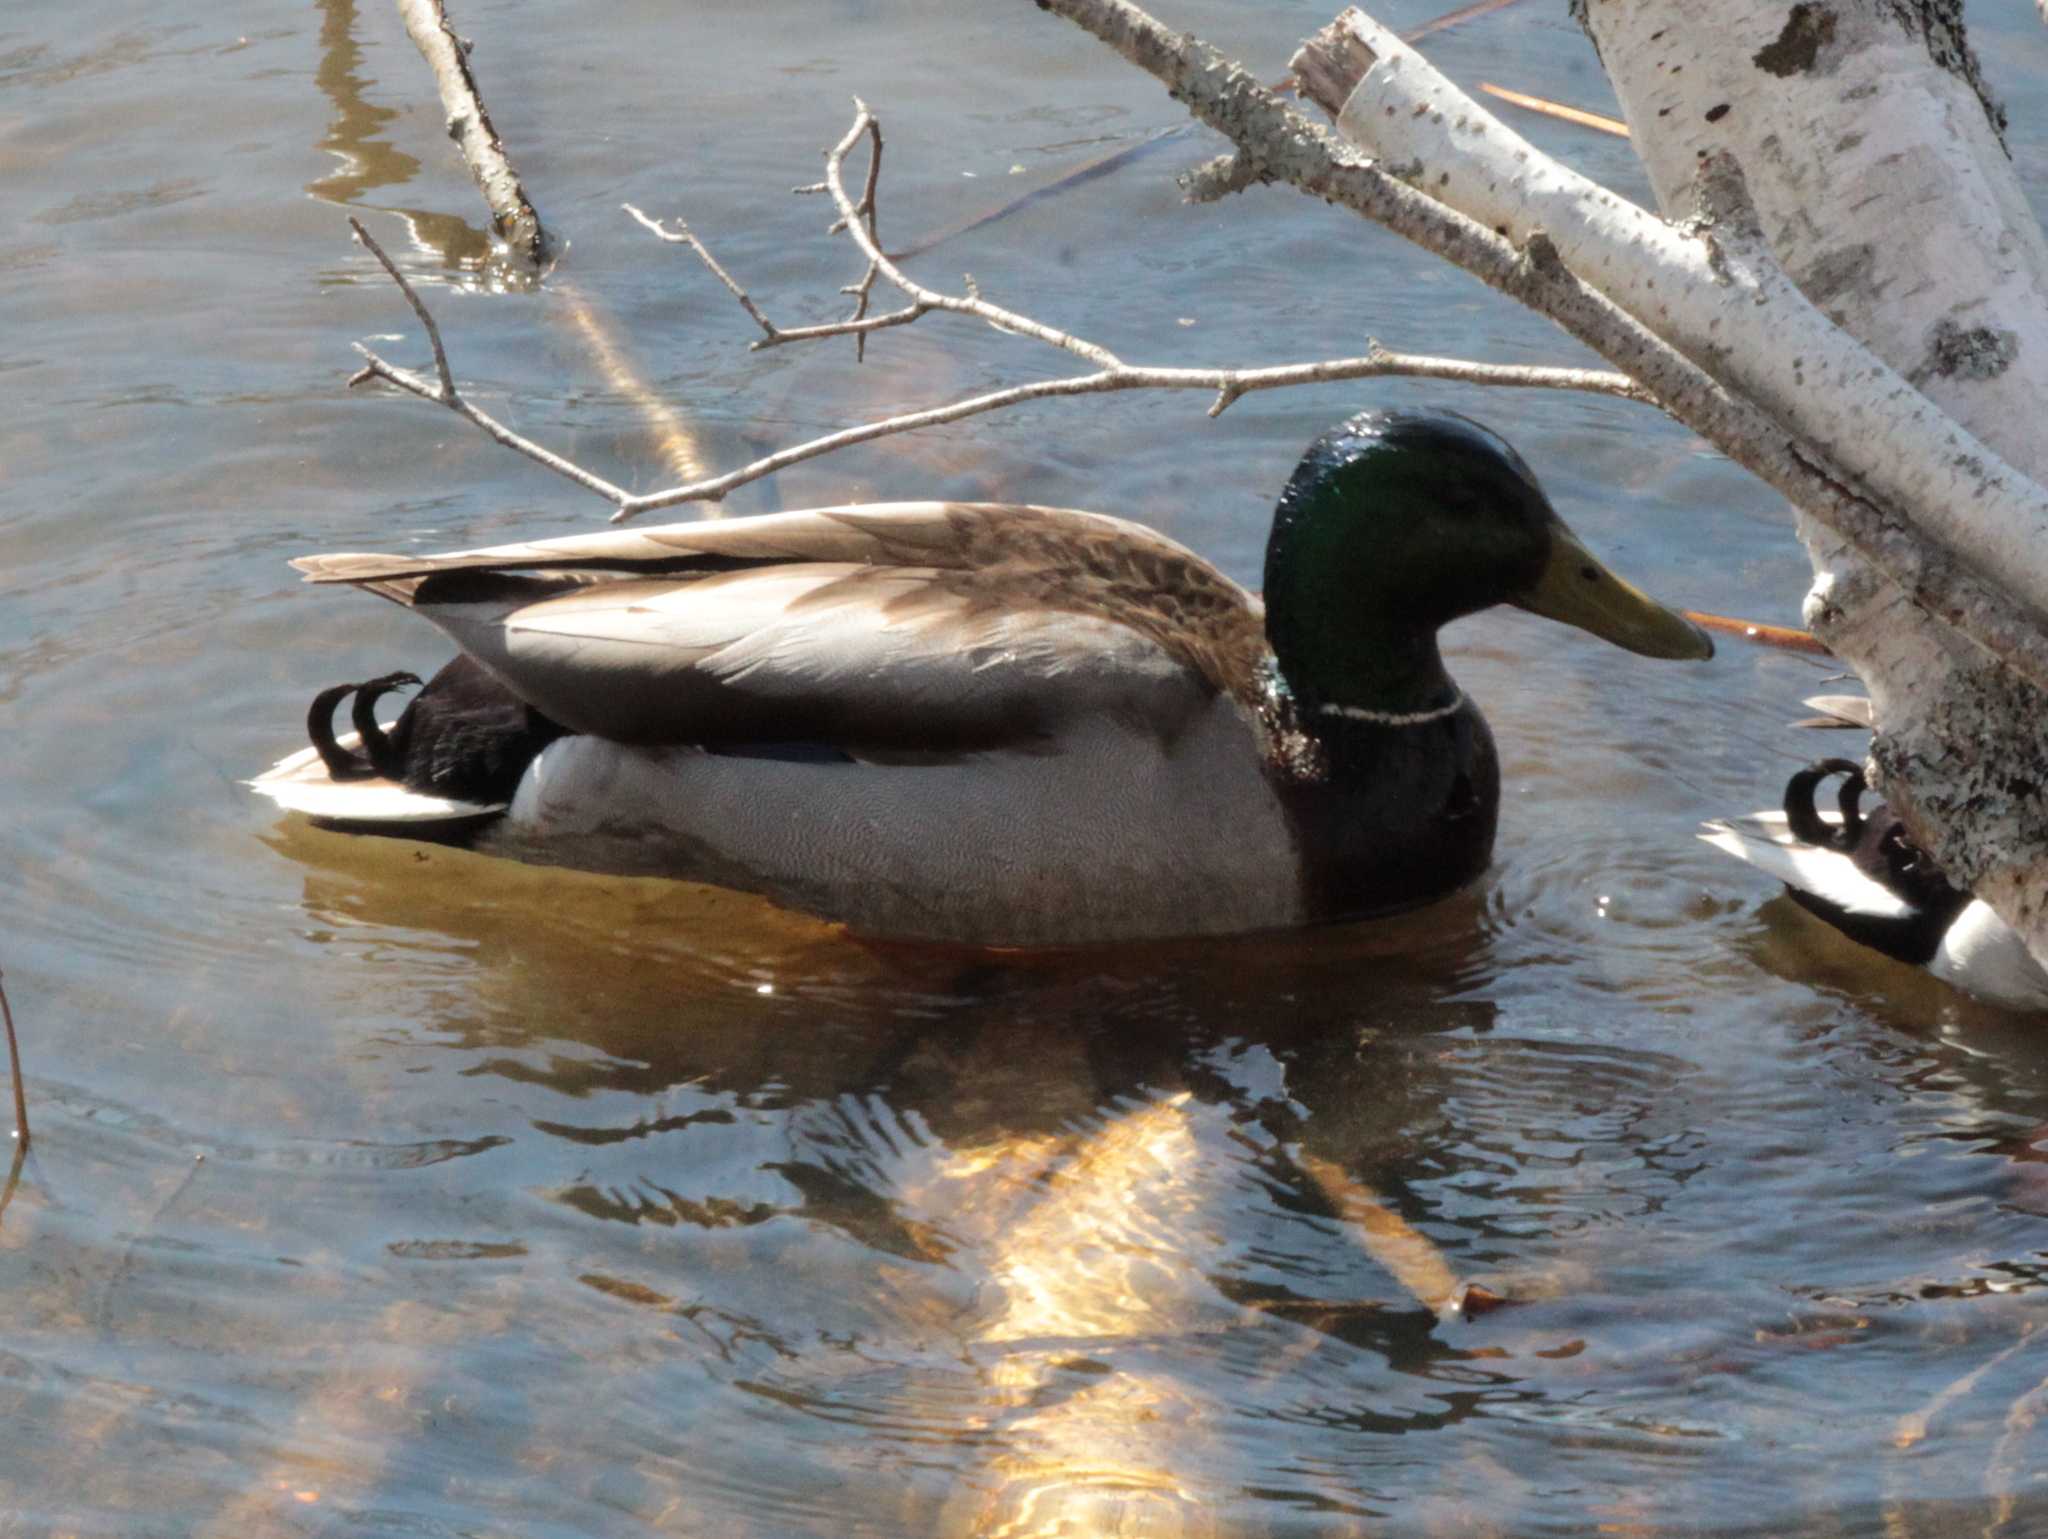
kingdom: Animalia
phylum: Chordata
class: Aves
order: Anseriformes
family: Anatidae
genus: Anas
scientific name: Anas platyrhynchos
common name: Mallard
